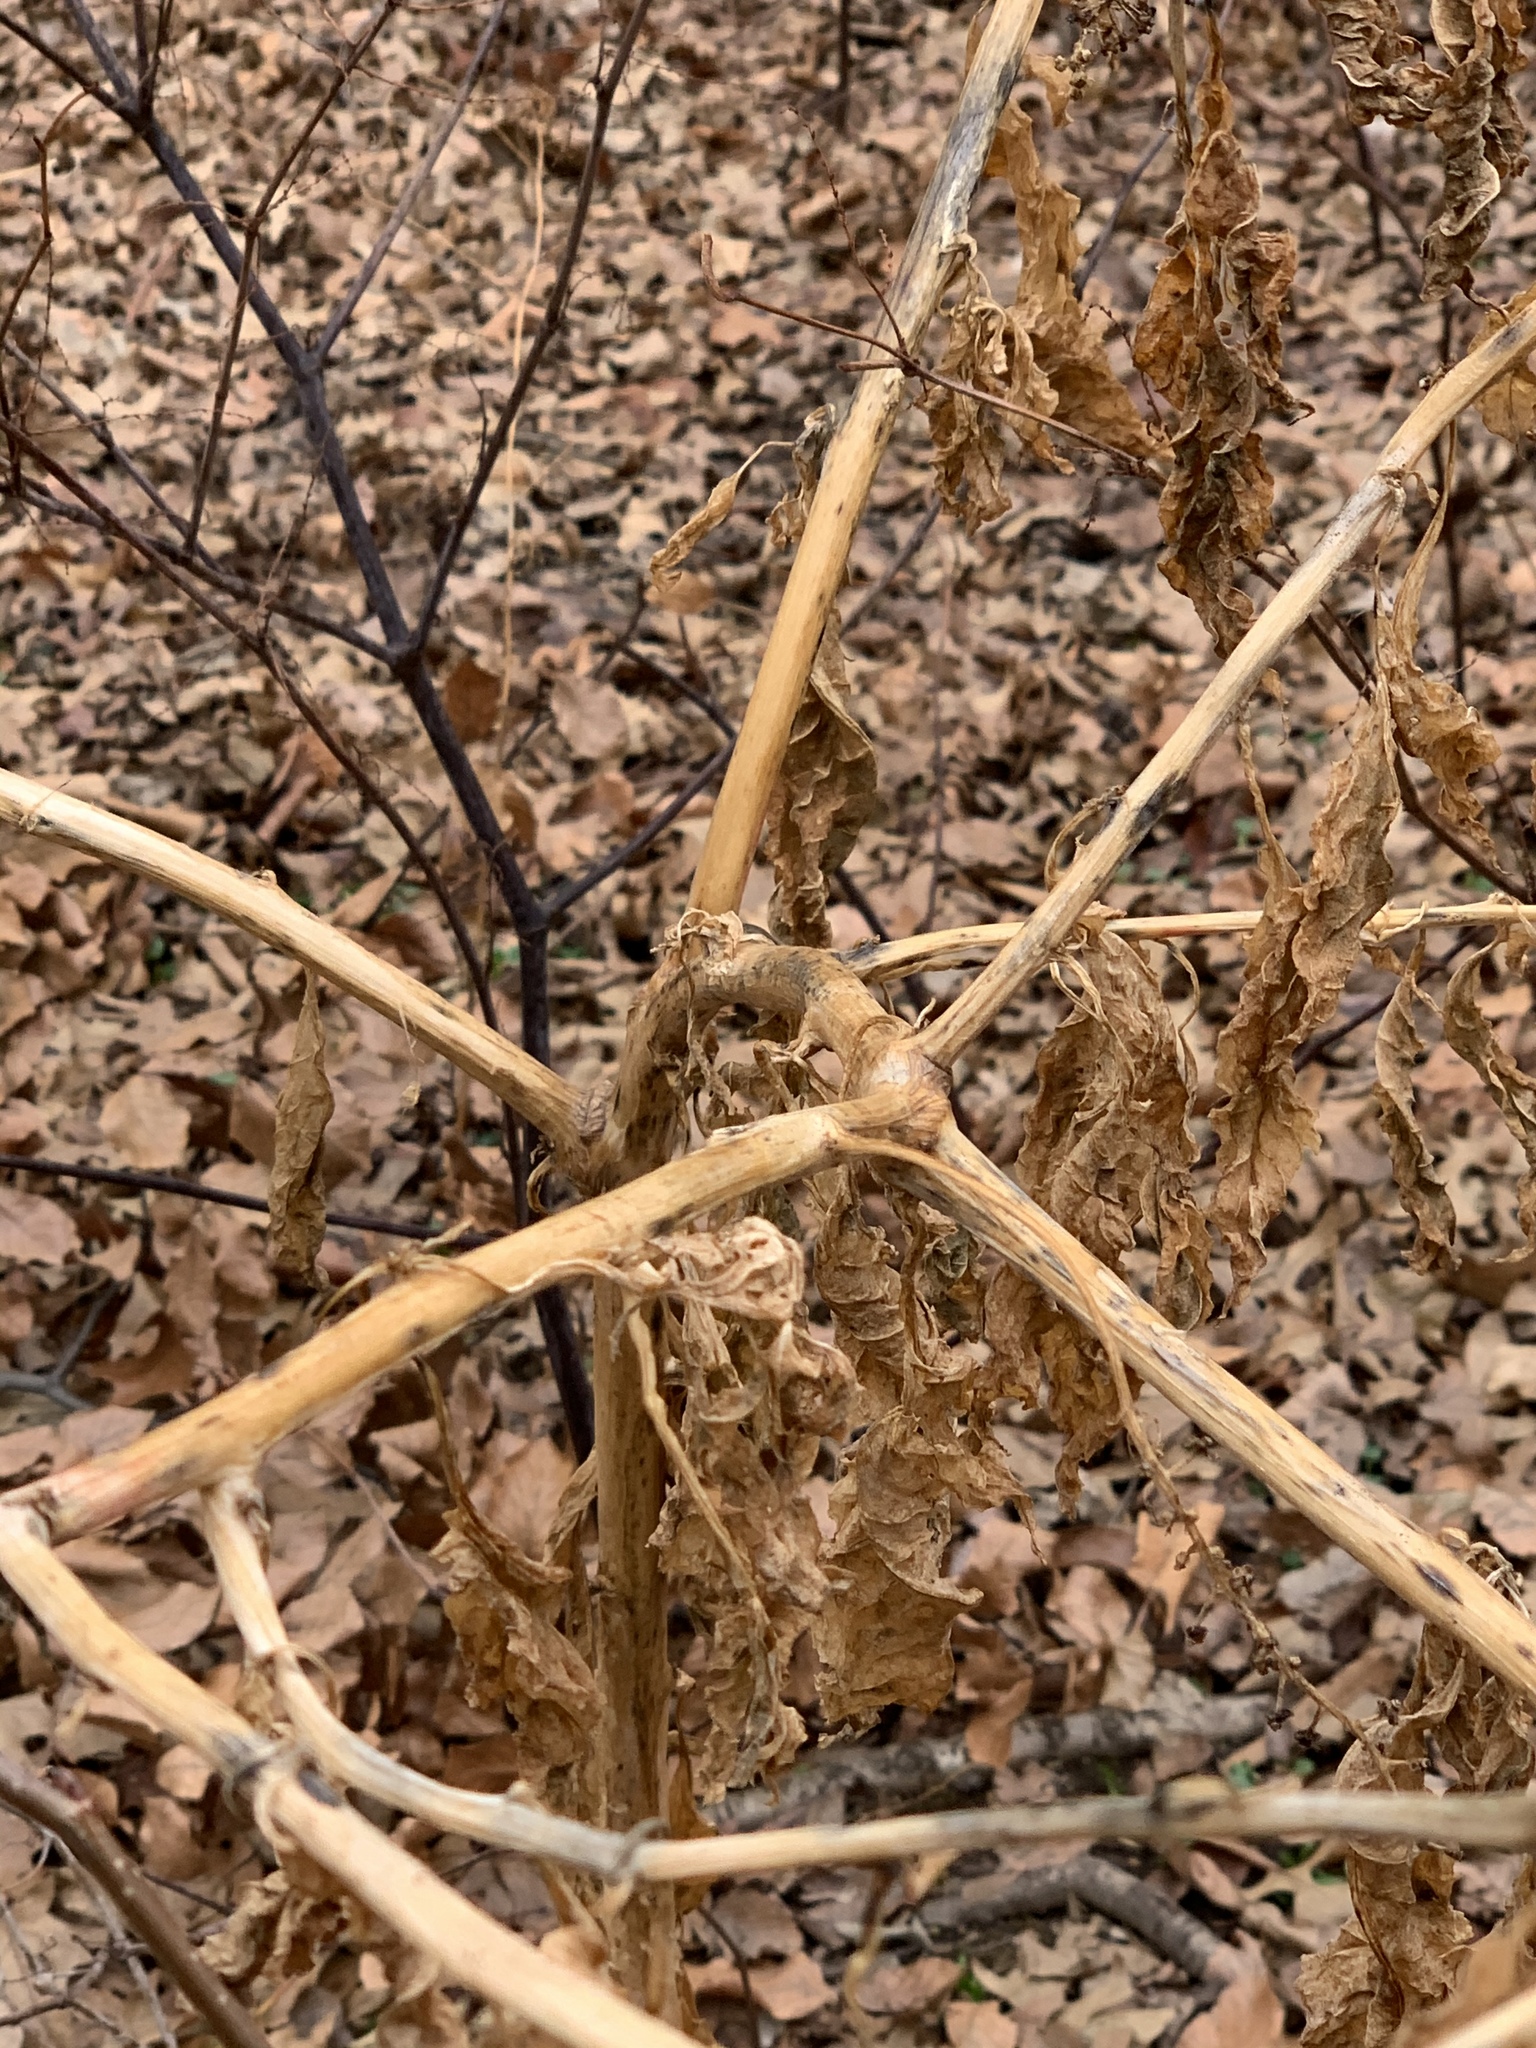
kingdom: Plantae
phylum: Tracheophyta
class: Magnoliopsida
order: Caryophyllales
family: Phytolaccaceae
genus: Phytolacca
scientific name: Phytolacca americana
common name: American pokeweed
